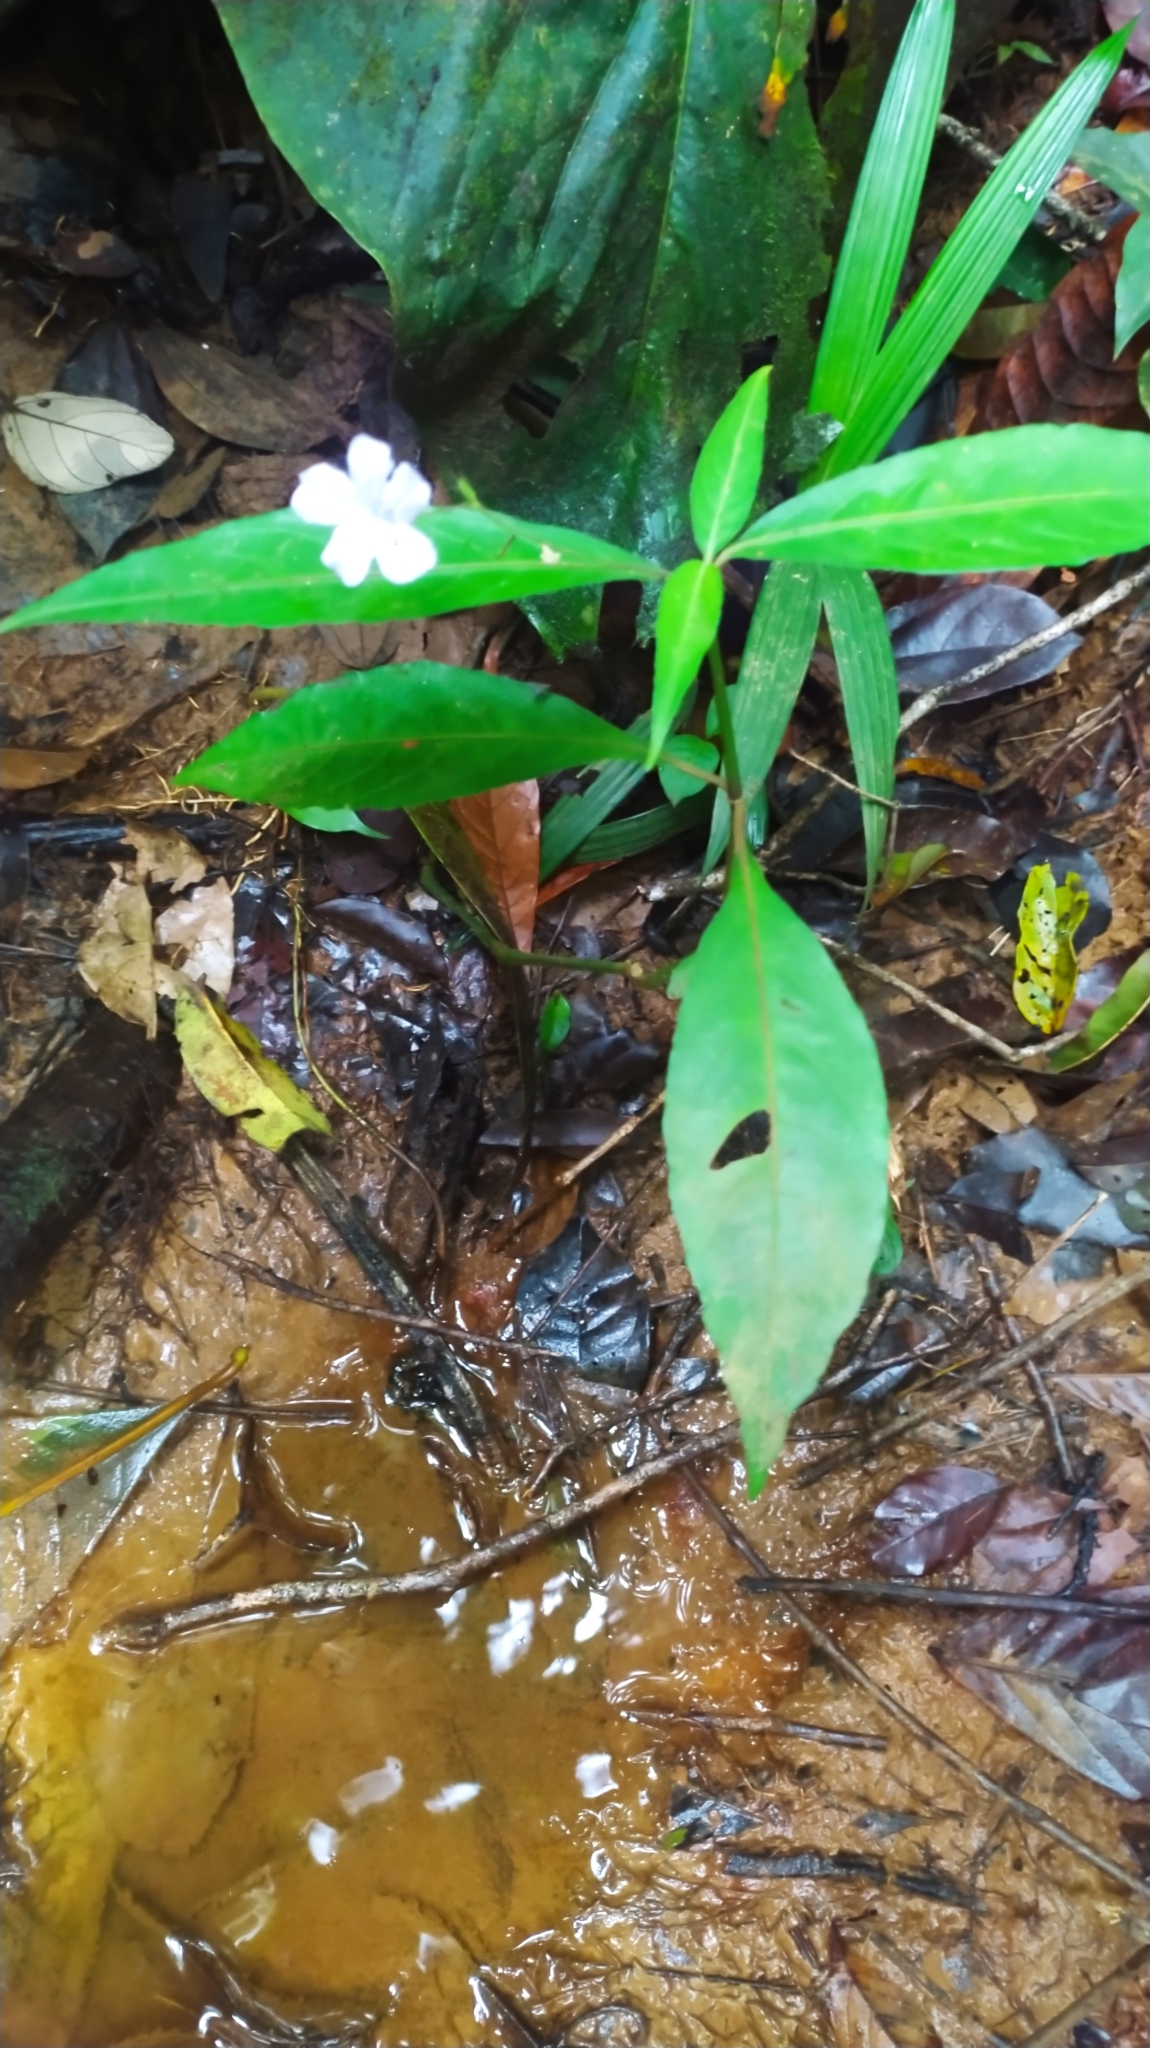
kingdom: Plantae
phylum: Tracheophyta
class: Magnoliopsida
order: Lamiales
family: Acanthaceae
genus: Ruellia
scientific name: Ruellia rubra
